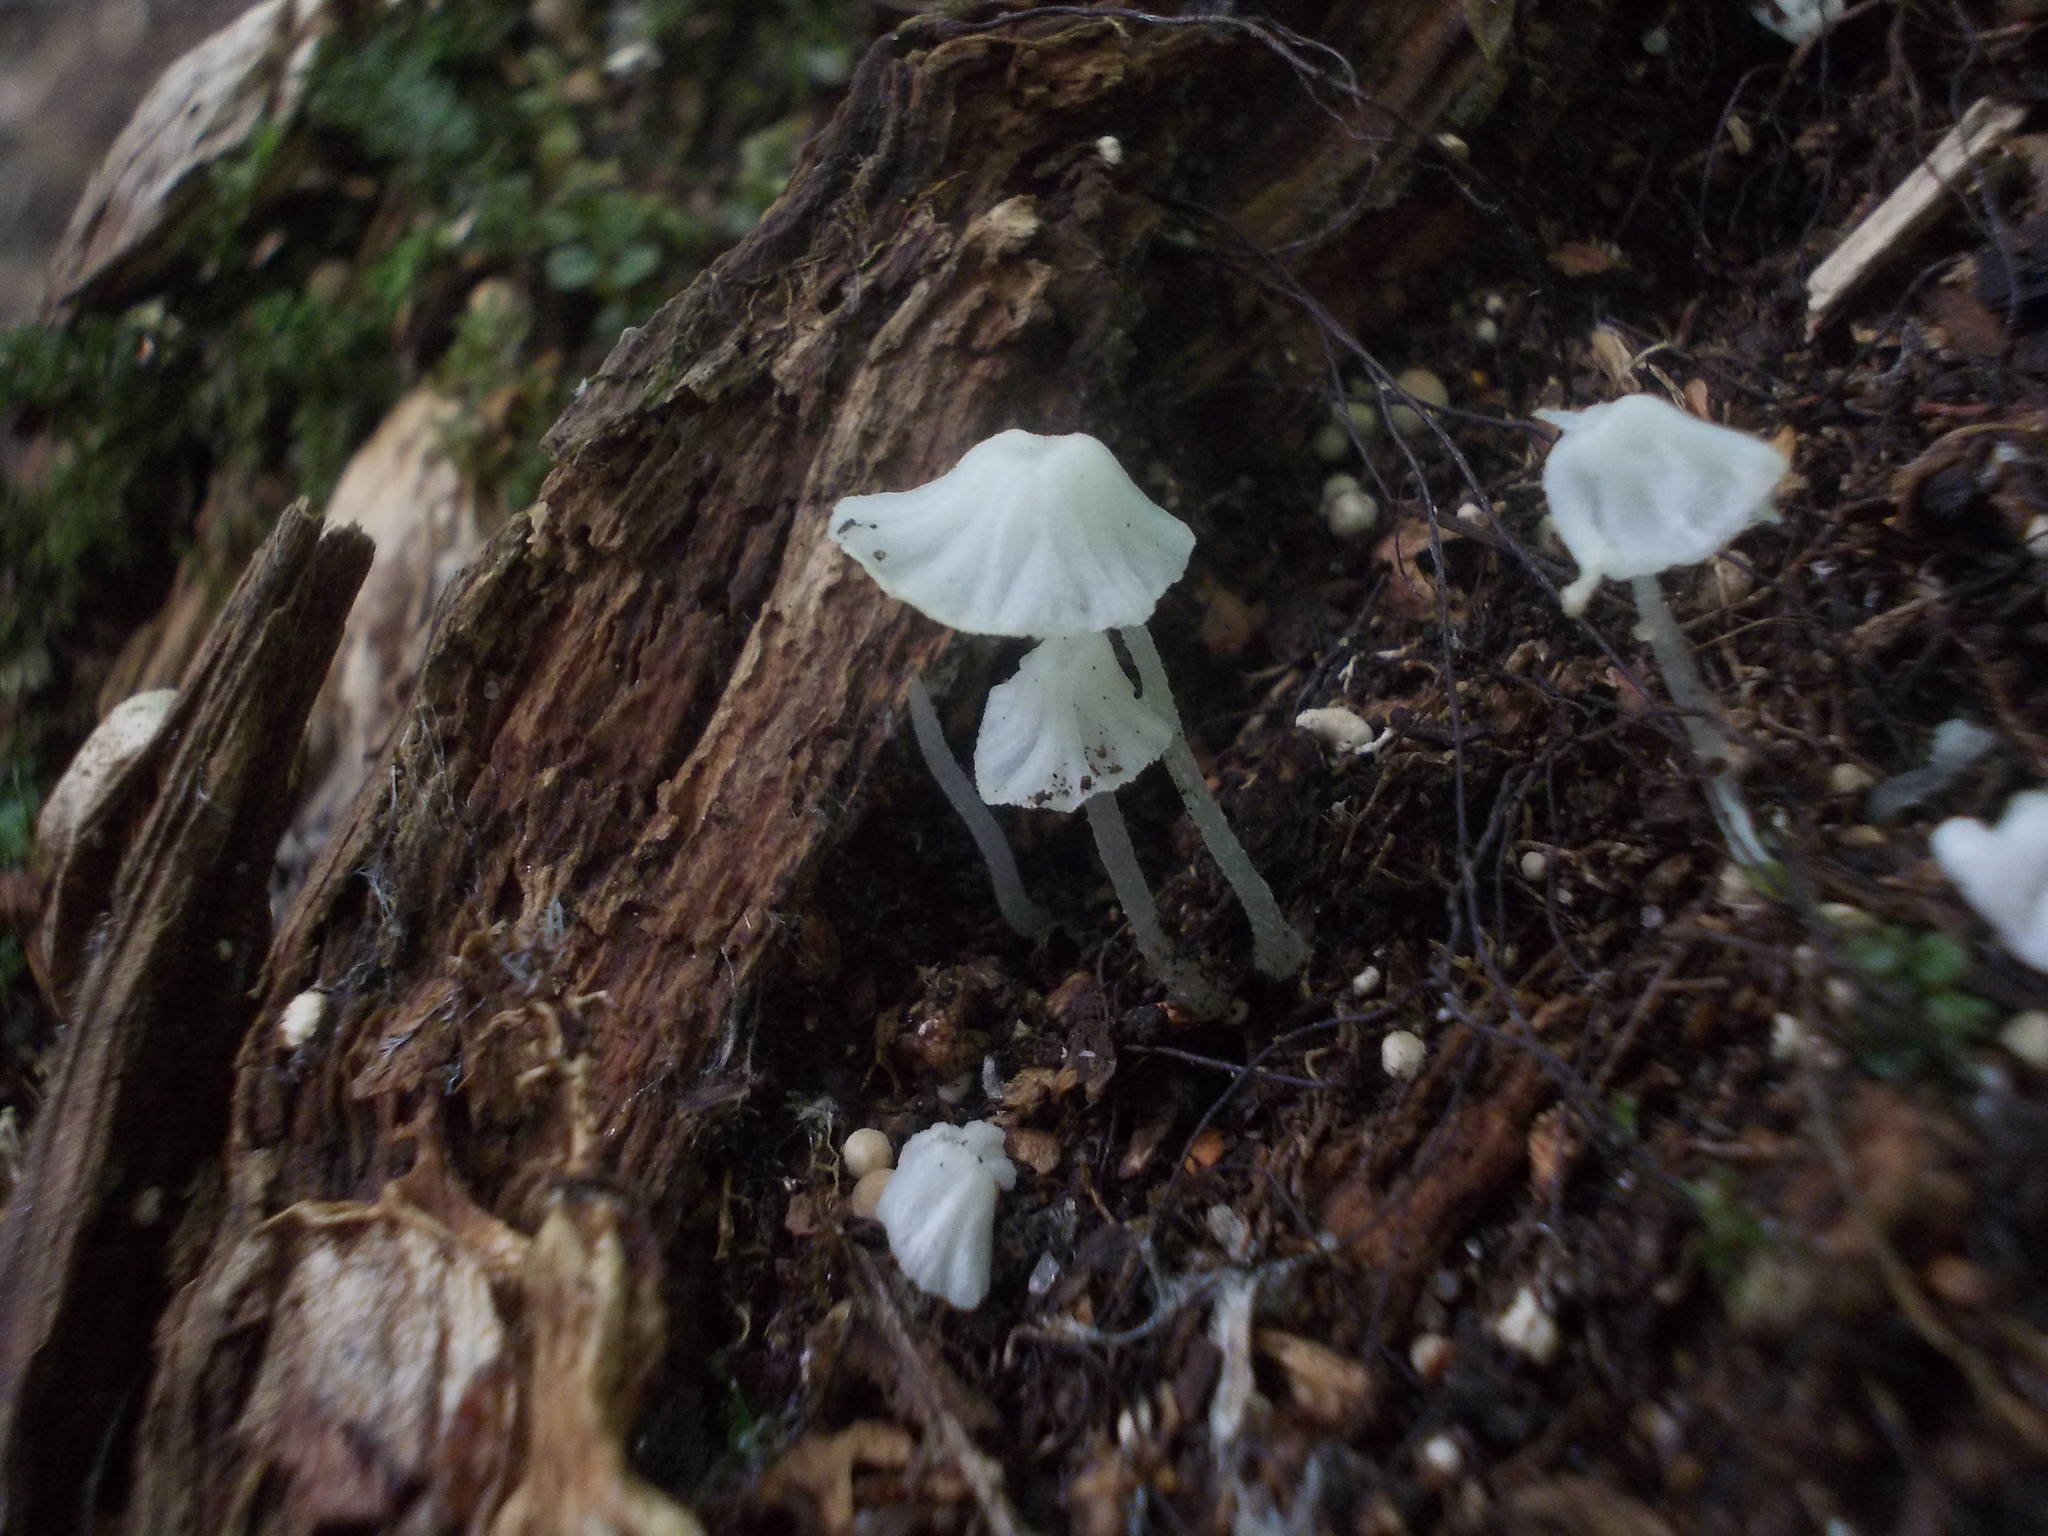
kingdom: Fungi
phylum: Basidiomycota
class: Agaricomycetes
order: Agaricales
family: Tricholomataceae
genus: Delicatula
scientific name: Delicatula integrella
